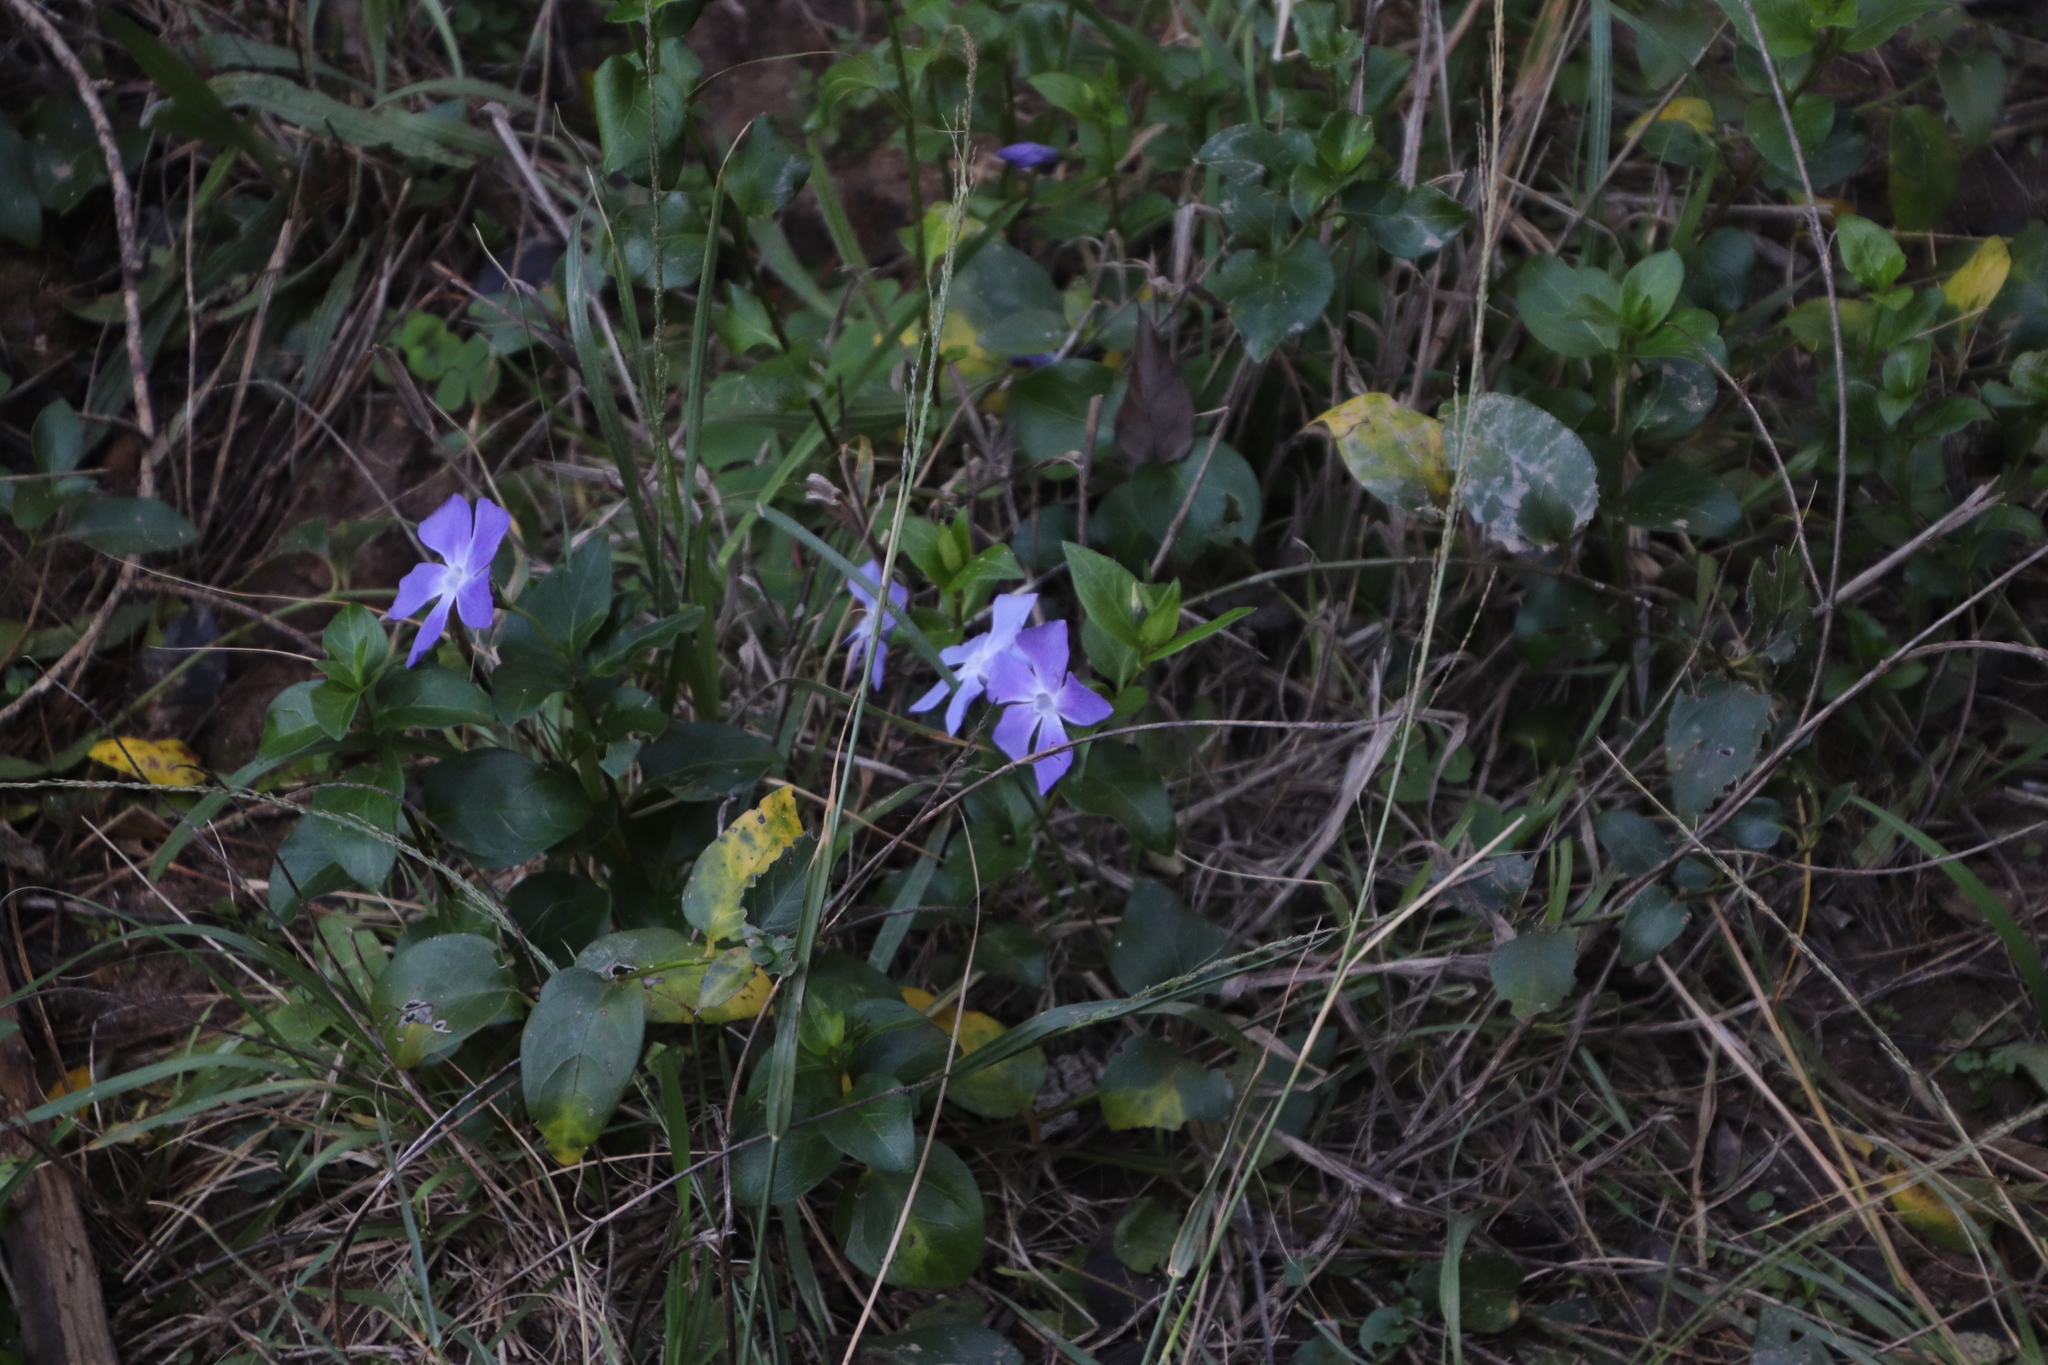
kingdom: Plantae
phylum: Tracheophyta
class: Magnoliopsida
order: Gentianales
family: Apocynaceae
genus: Vinca
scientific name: Vinca major
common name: Greater periwinkle
